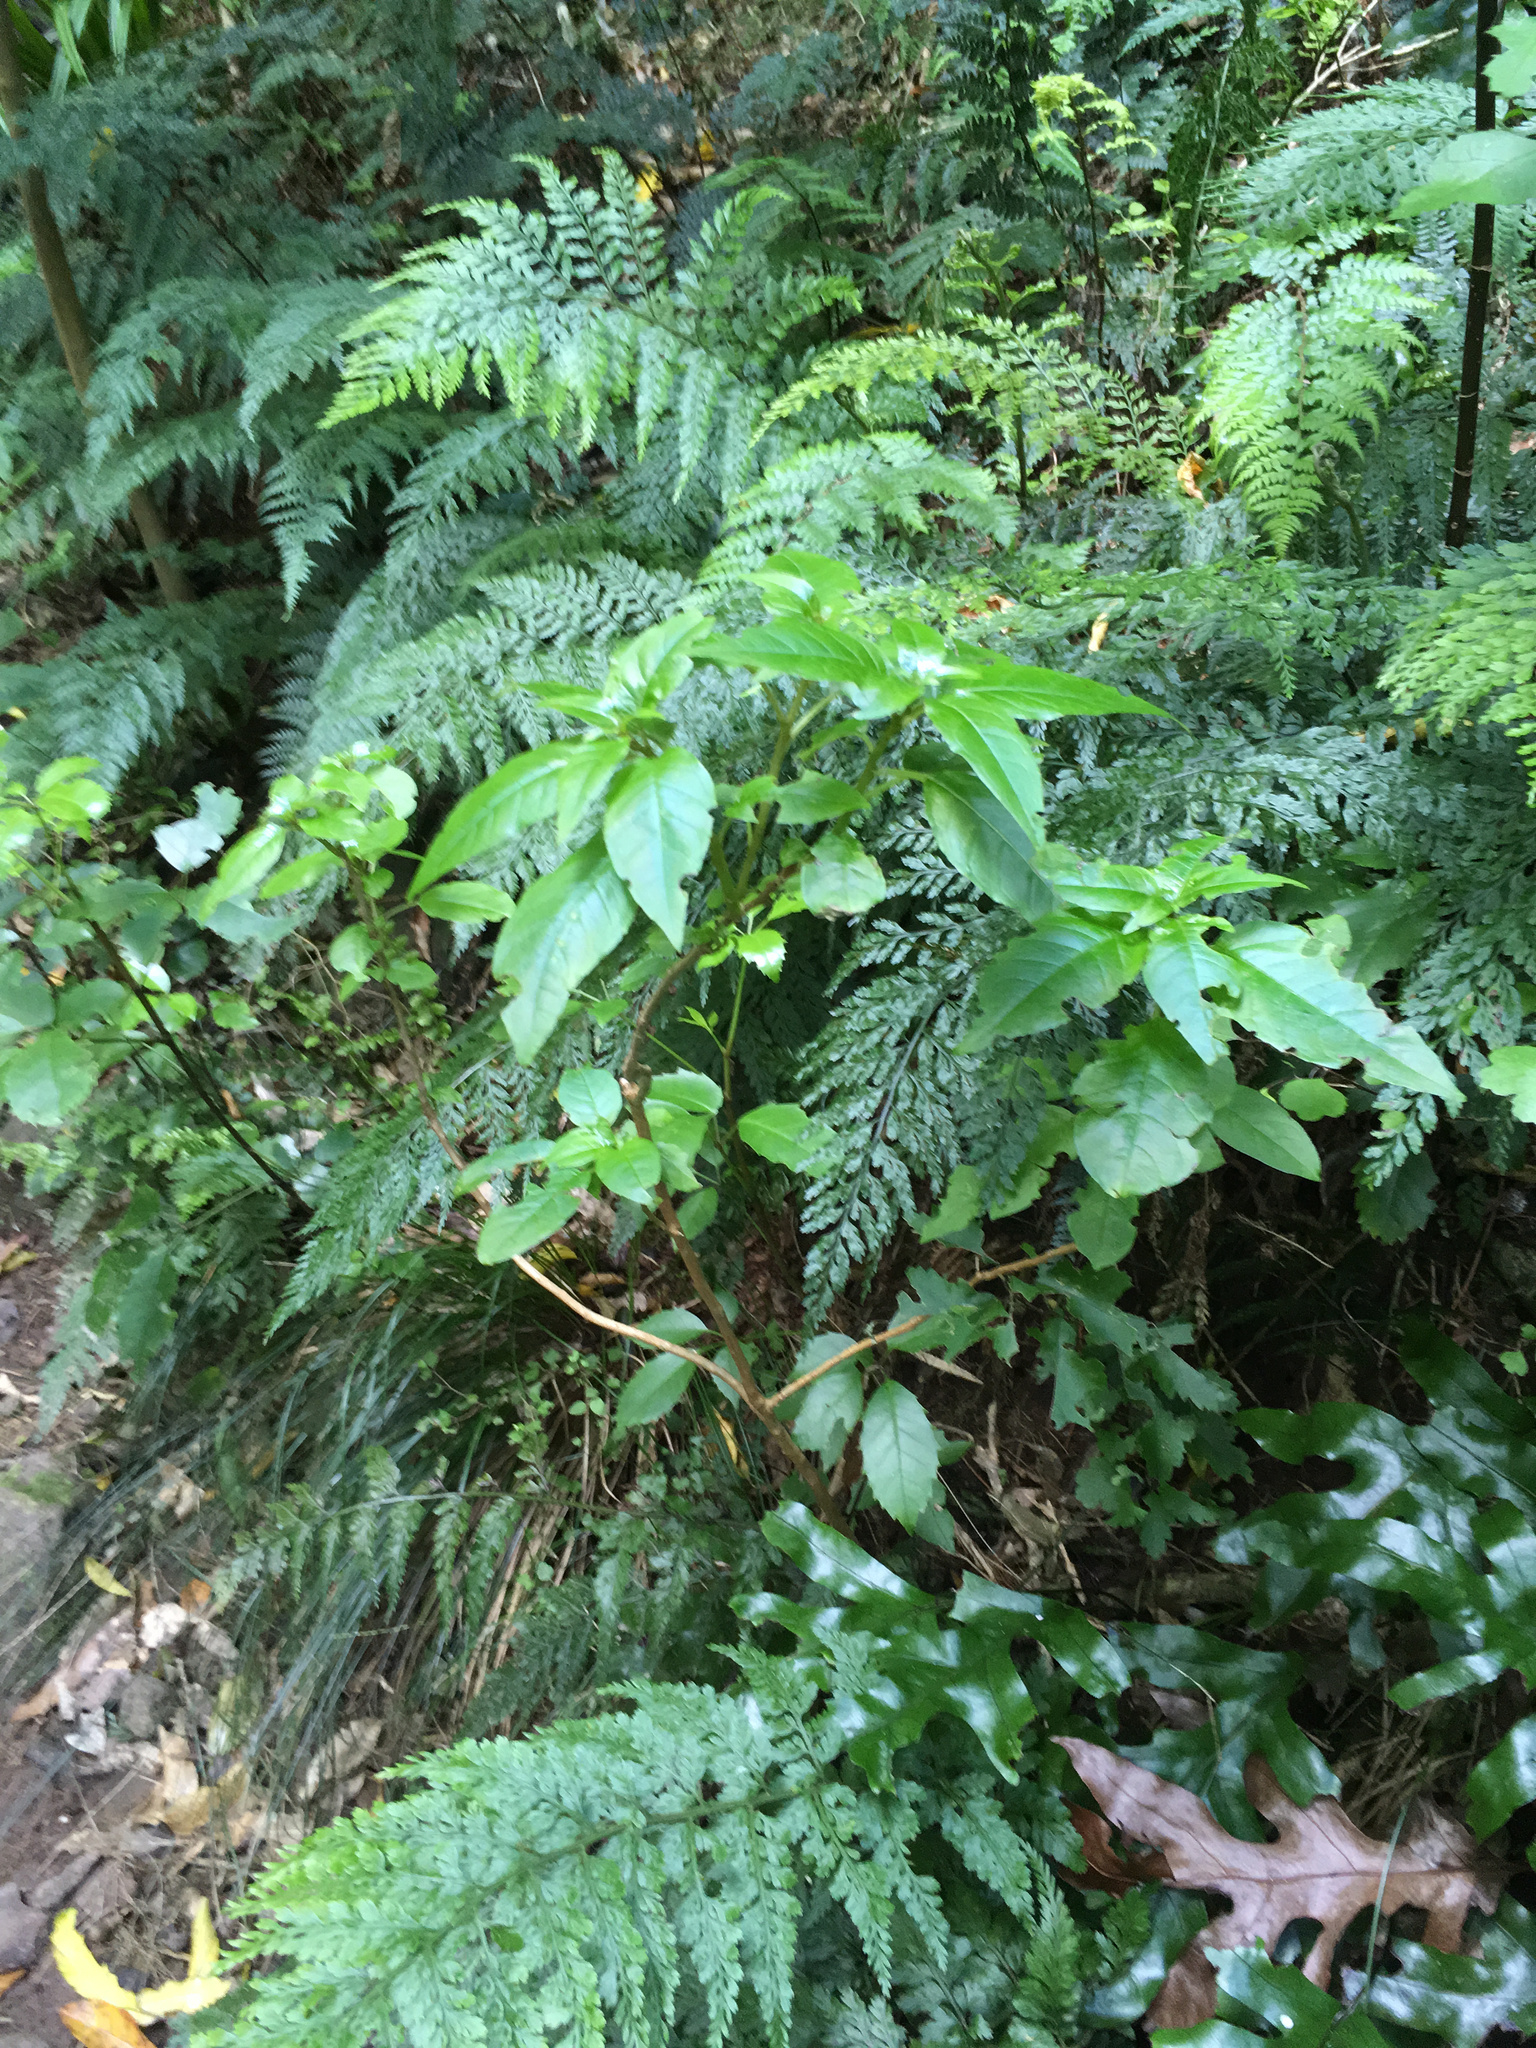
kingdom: Plantae
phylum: Tracheophyta
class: Magnoliopsida
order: Myrtales
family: Onagraceae
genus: Fuchsia
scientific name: Fuchsia excorticata
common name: Tree fuchsia
